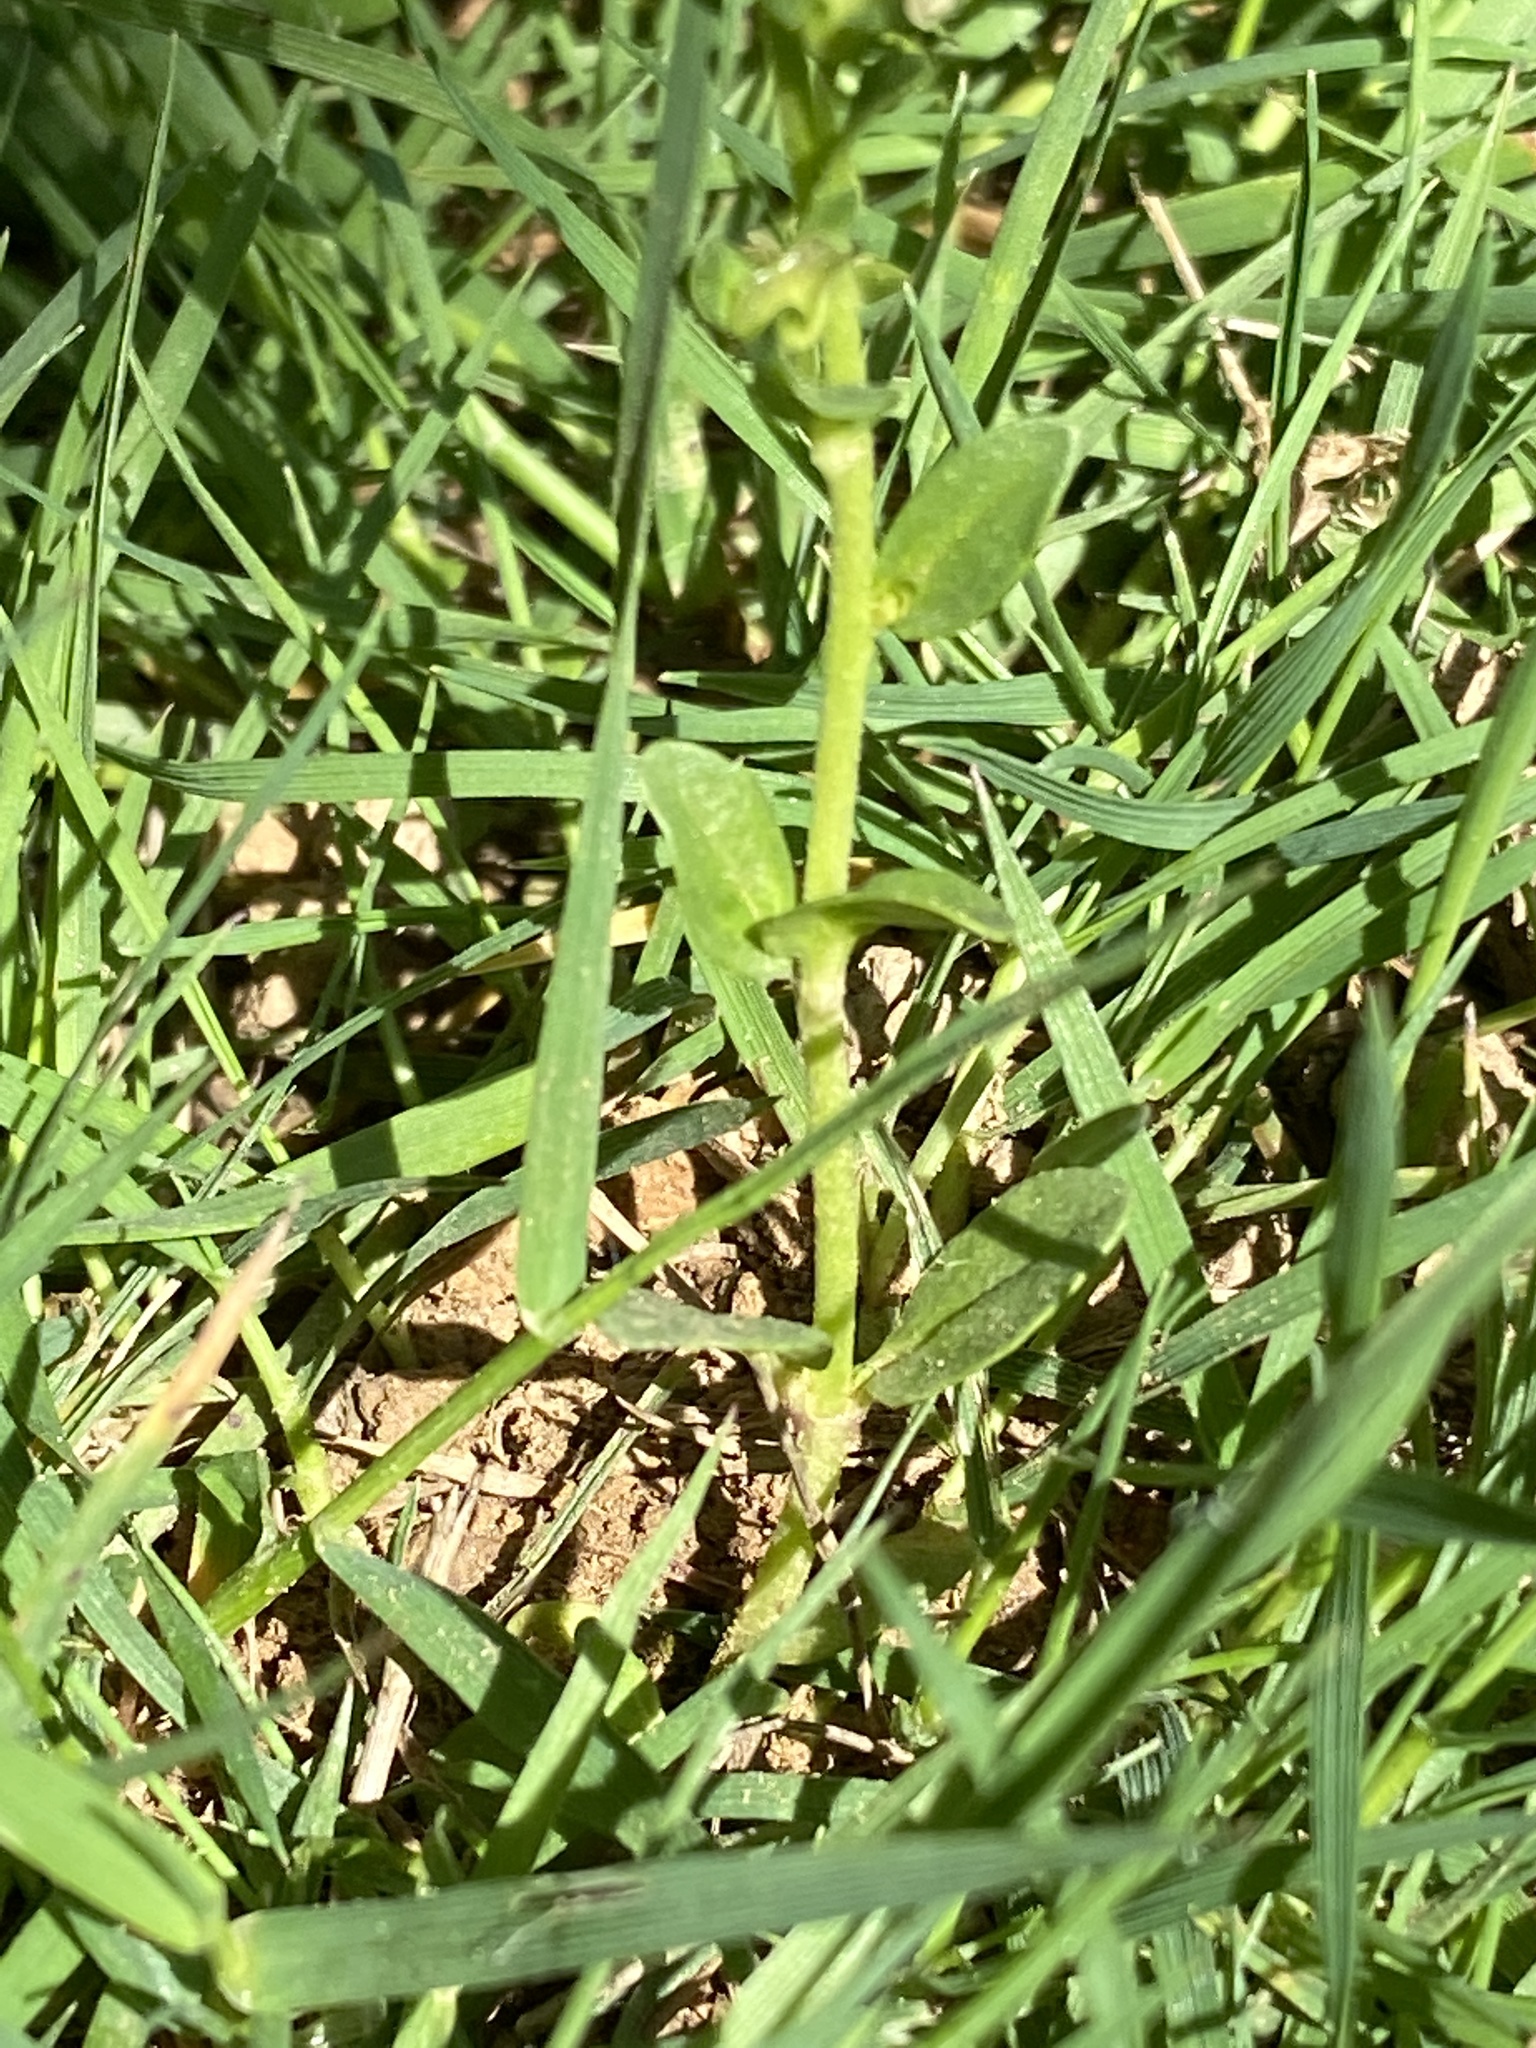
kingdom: Plantae
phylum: Tracheophyta
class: Magnoliopsida
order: Lamiales
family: Plantaginaceae
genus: Veronica
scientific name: Veronica serpyllifolia
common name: Thyme-leaved speedwell
